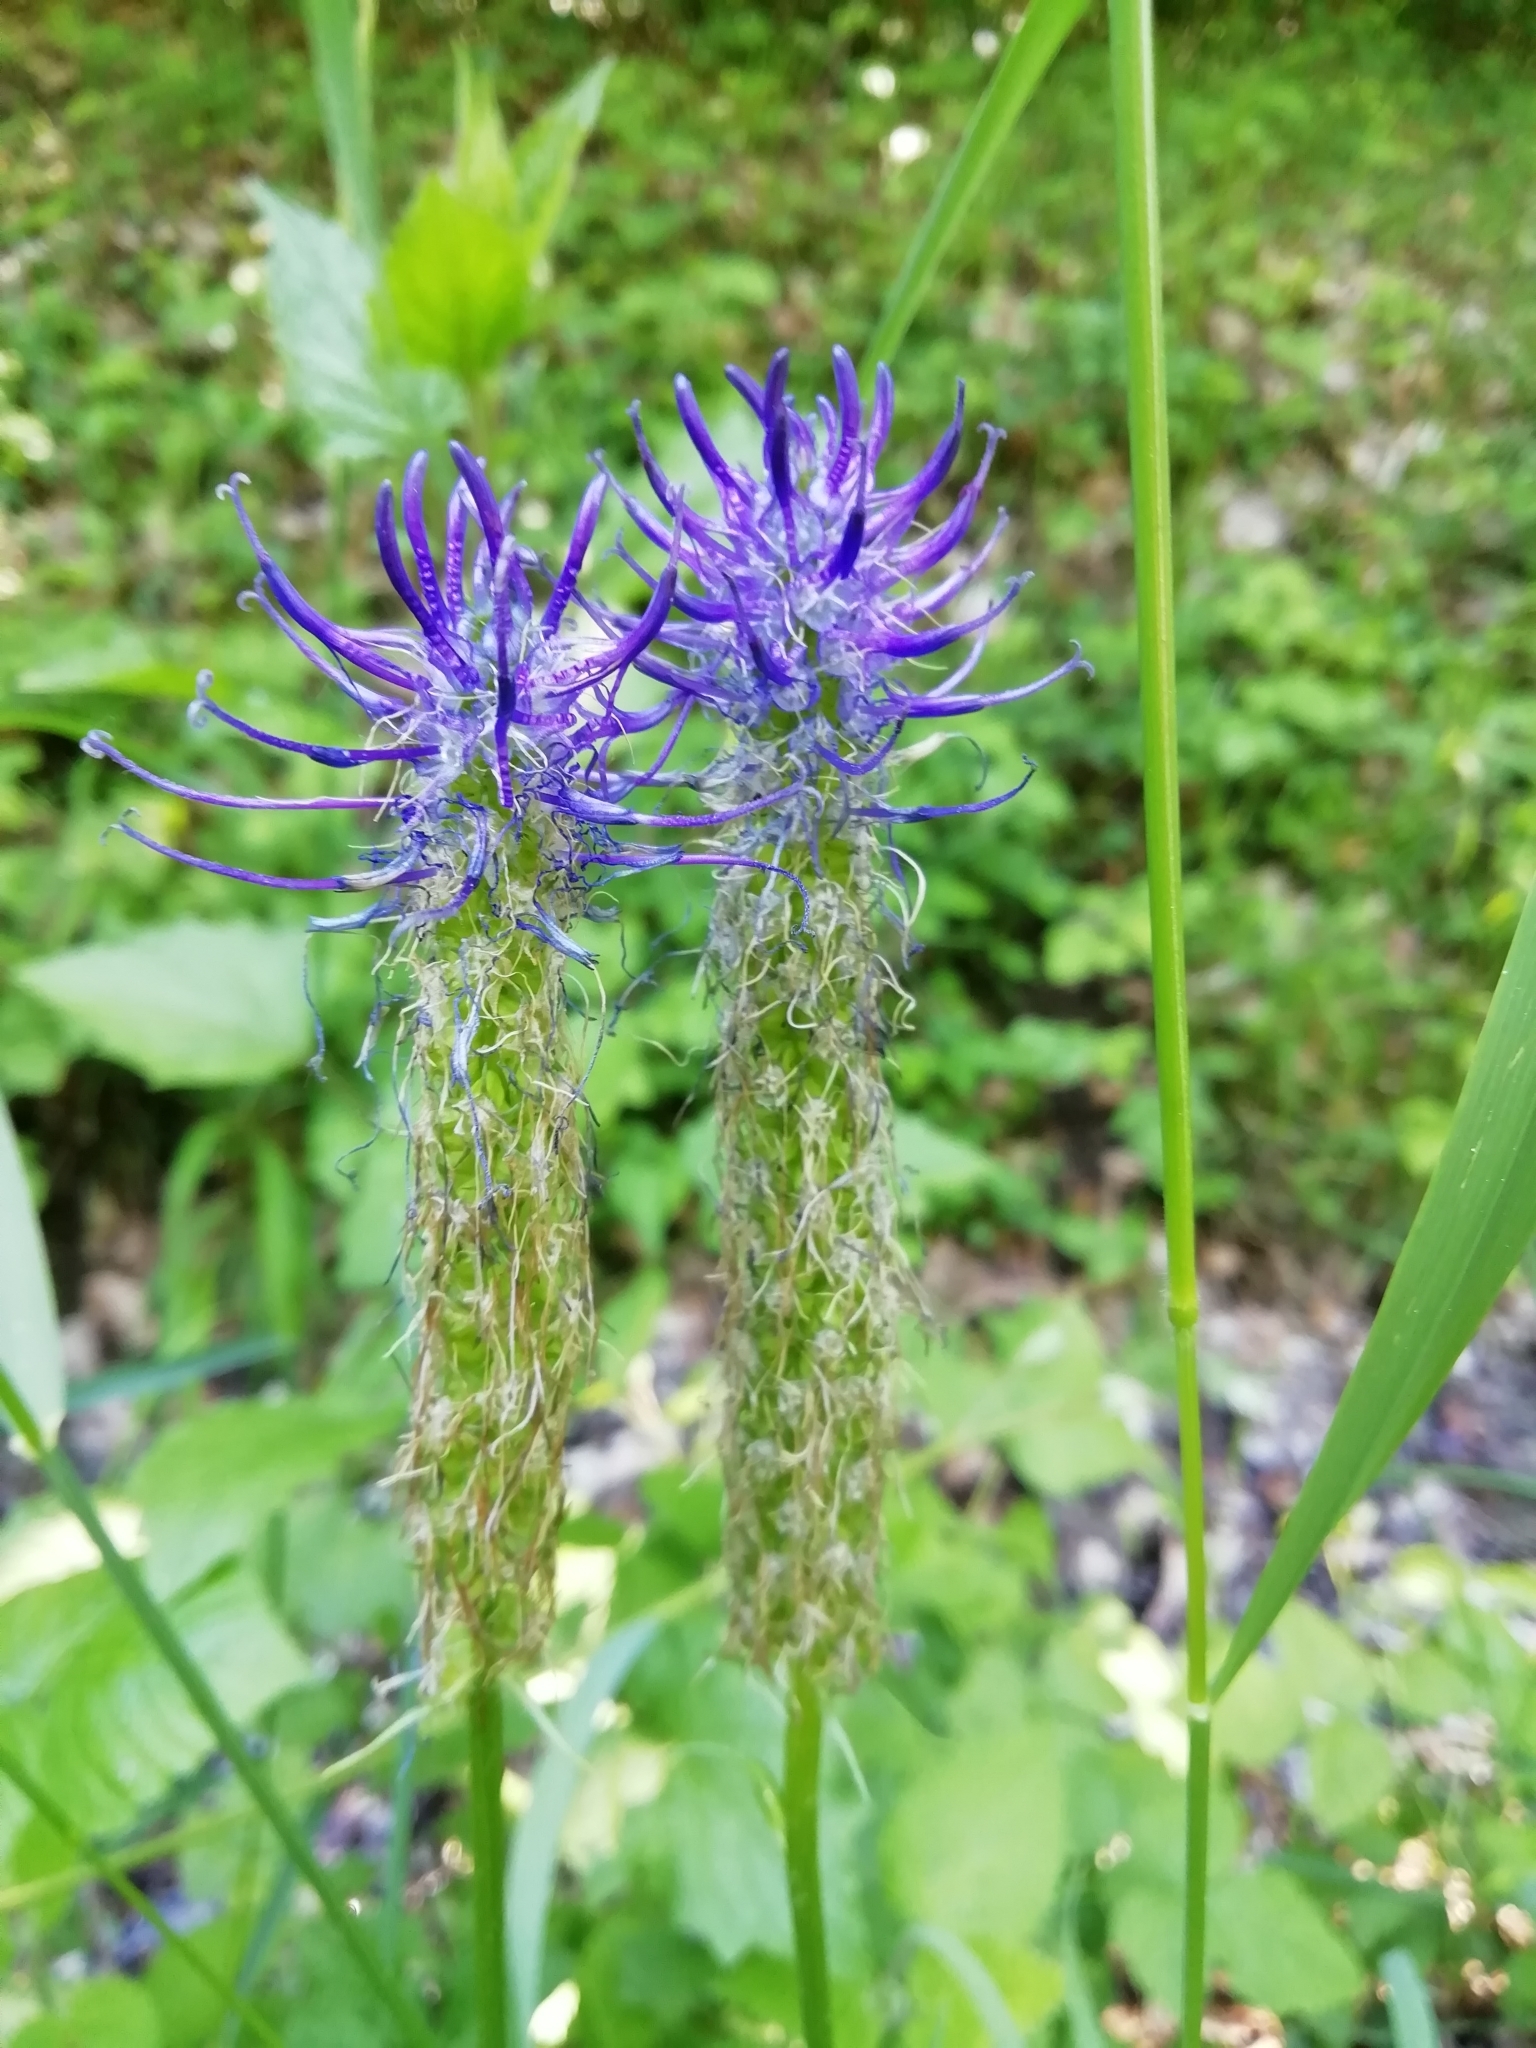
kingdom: Plantae
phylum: Tracheophyta
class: Magnoliopsida
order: Asterales
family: Campanulaceae
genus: Phyteuma
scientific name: Phyteuma spicatum
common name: Spiked rampion
